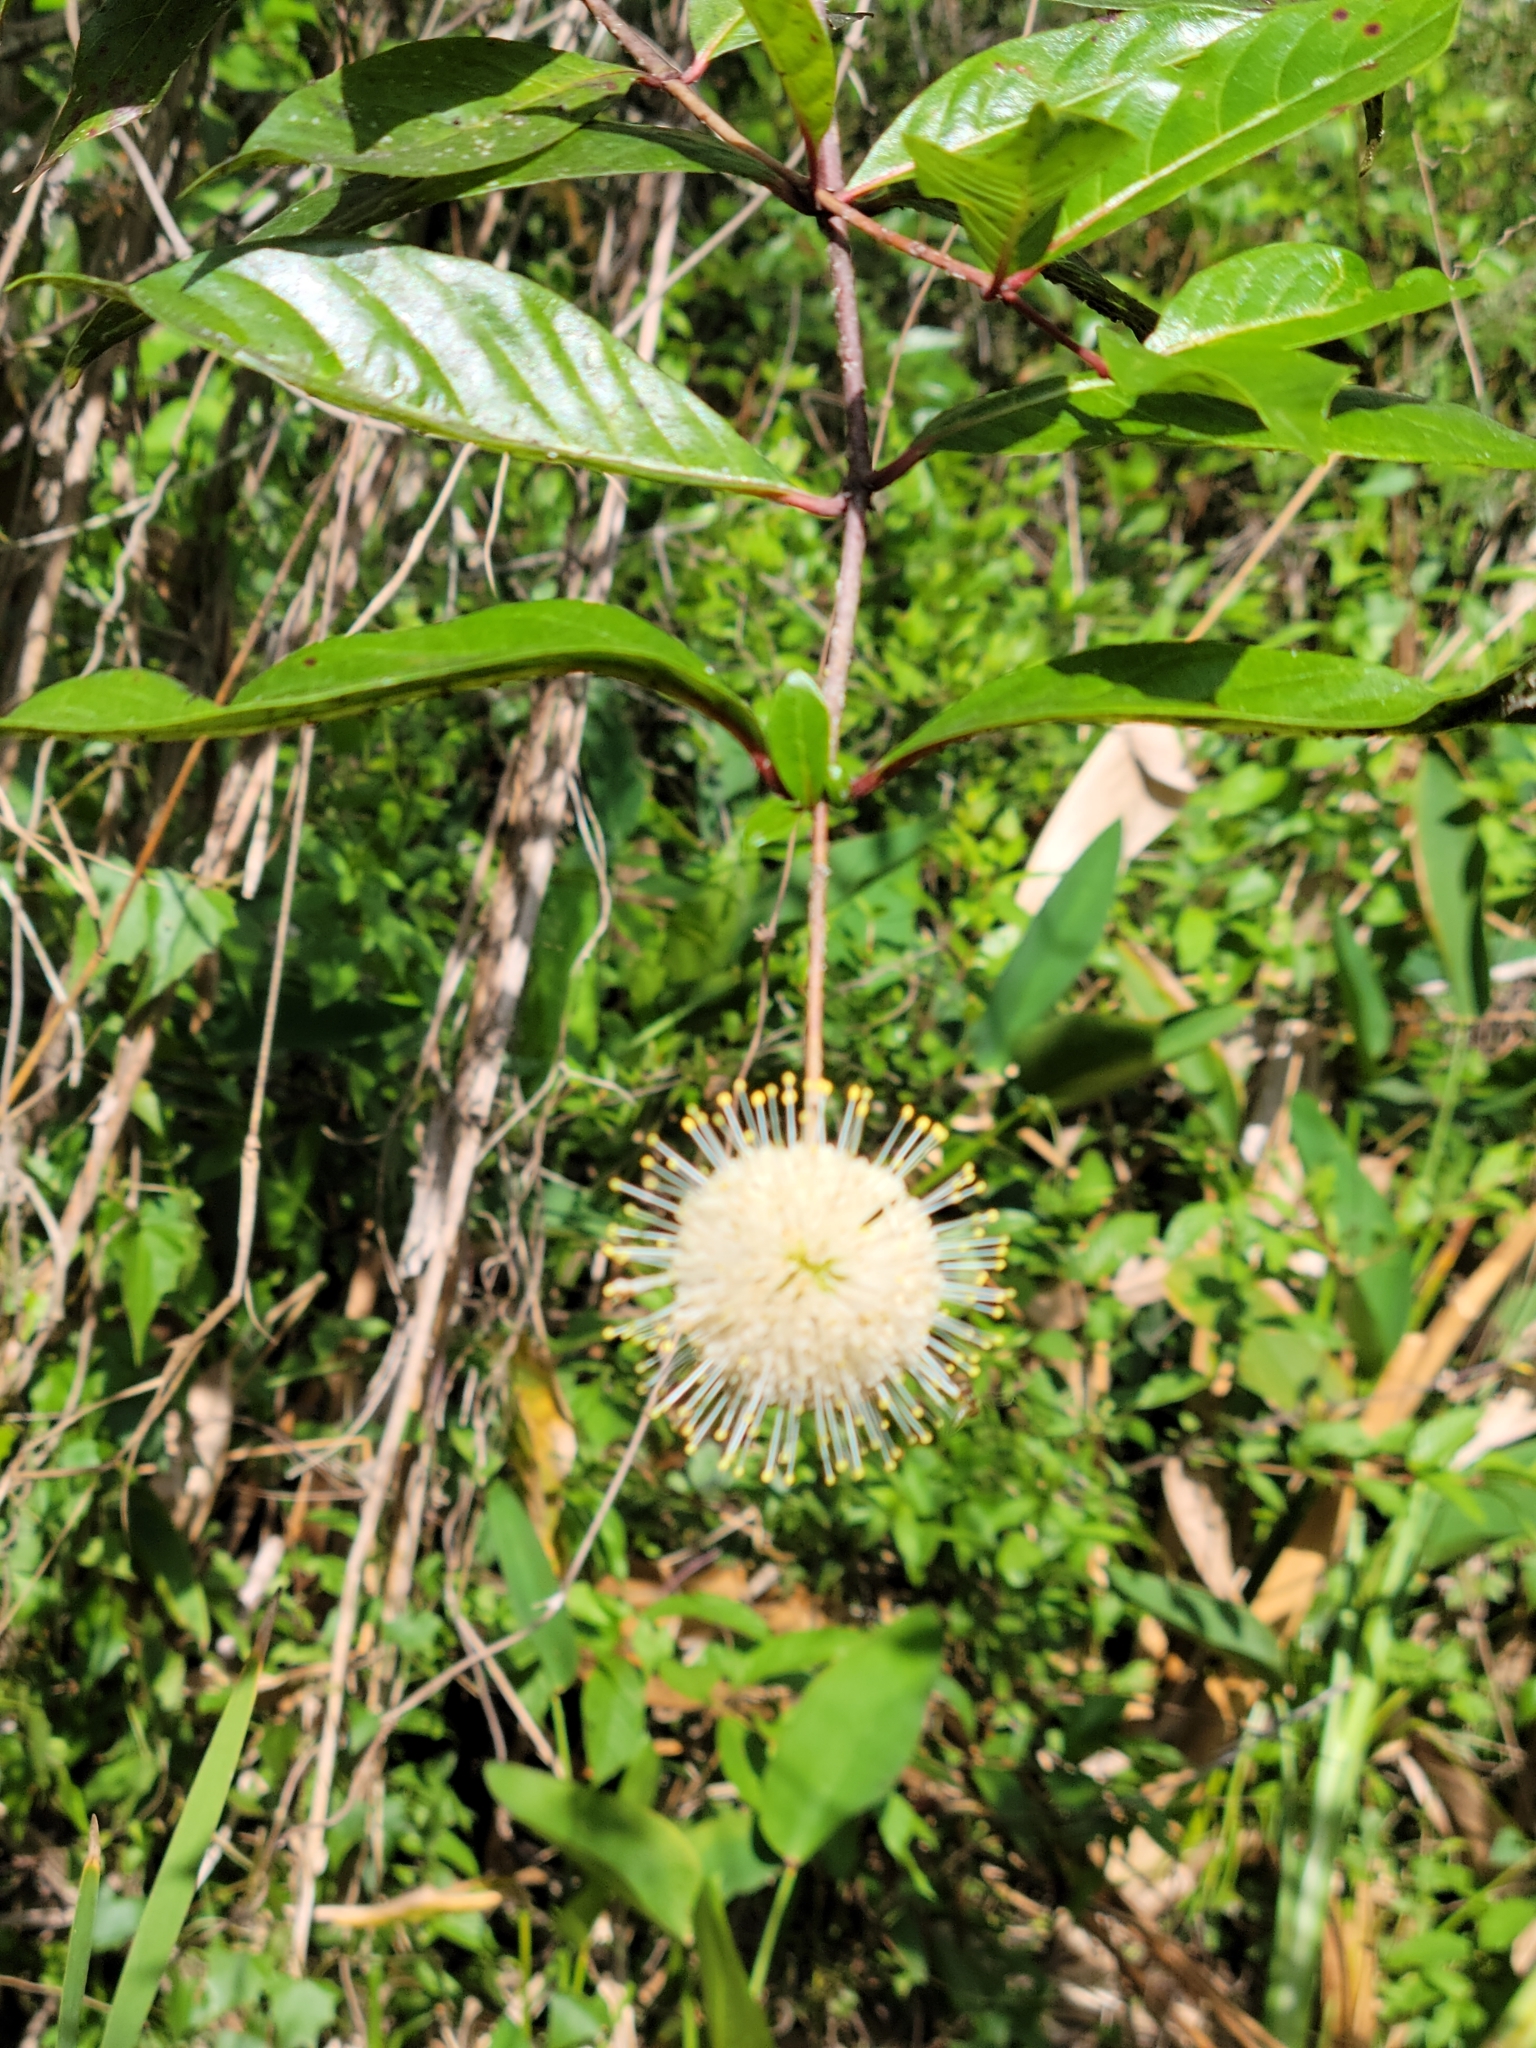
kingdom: Plantae
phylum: Tracheophyta
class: Magnoliopsida
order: Gentianales
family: Rubiaceae
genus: Cephalanthus
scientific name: Cephalanthus occidentalis
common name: Button-willow
